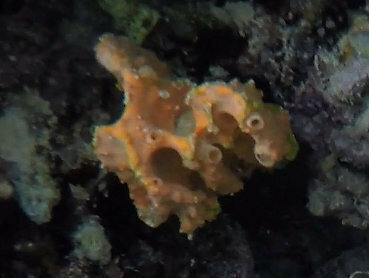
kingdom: Animalia
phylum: Porifera
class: Demospongiae
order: Scopalinida
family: Scopalinidae
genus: Stylissa
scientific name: Stylissa carteri
